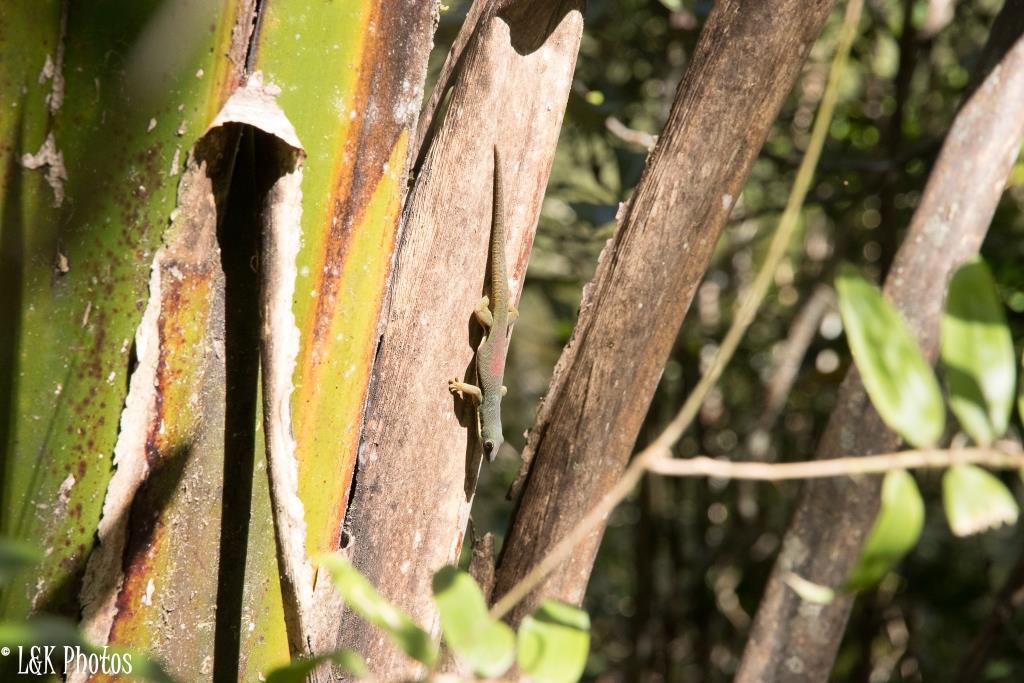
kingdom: Animalia
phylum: Chordata
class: Squamata
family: Gekkonidae
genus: Phelsuma
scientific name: Phelsuma lineata
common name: Lined day gecko
